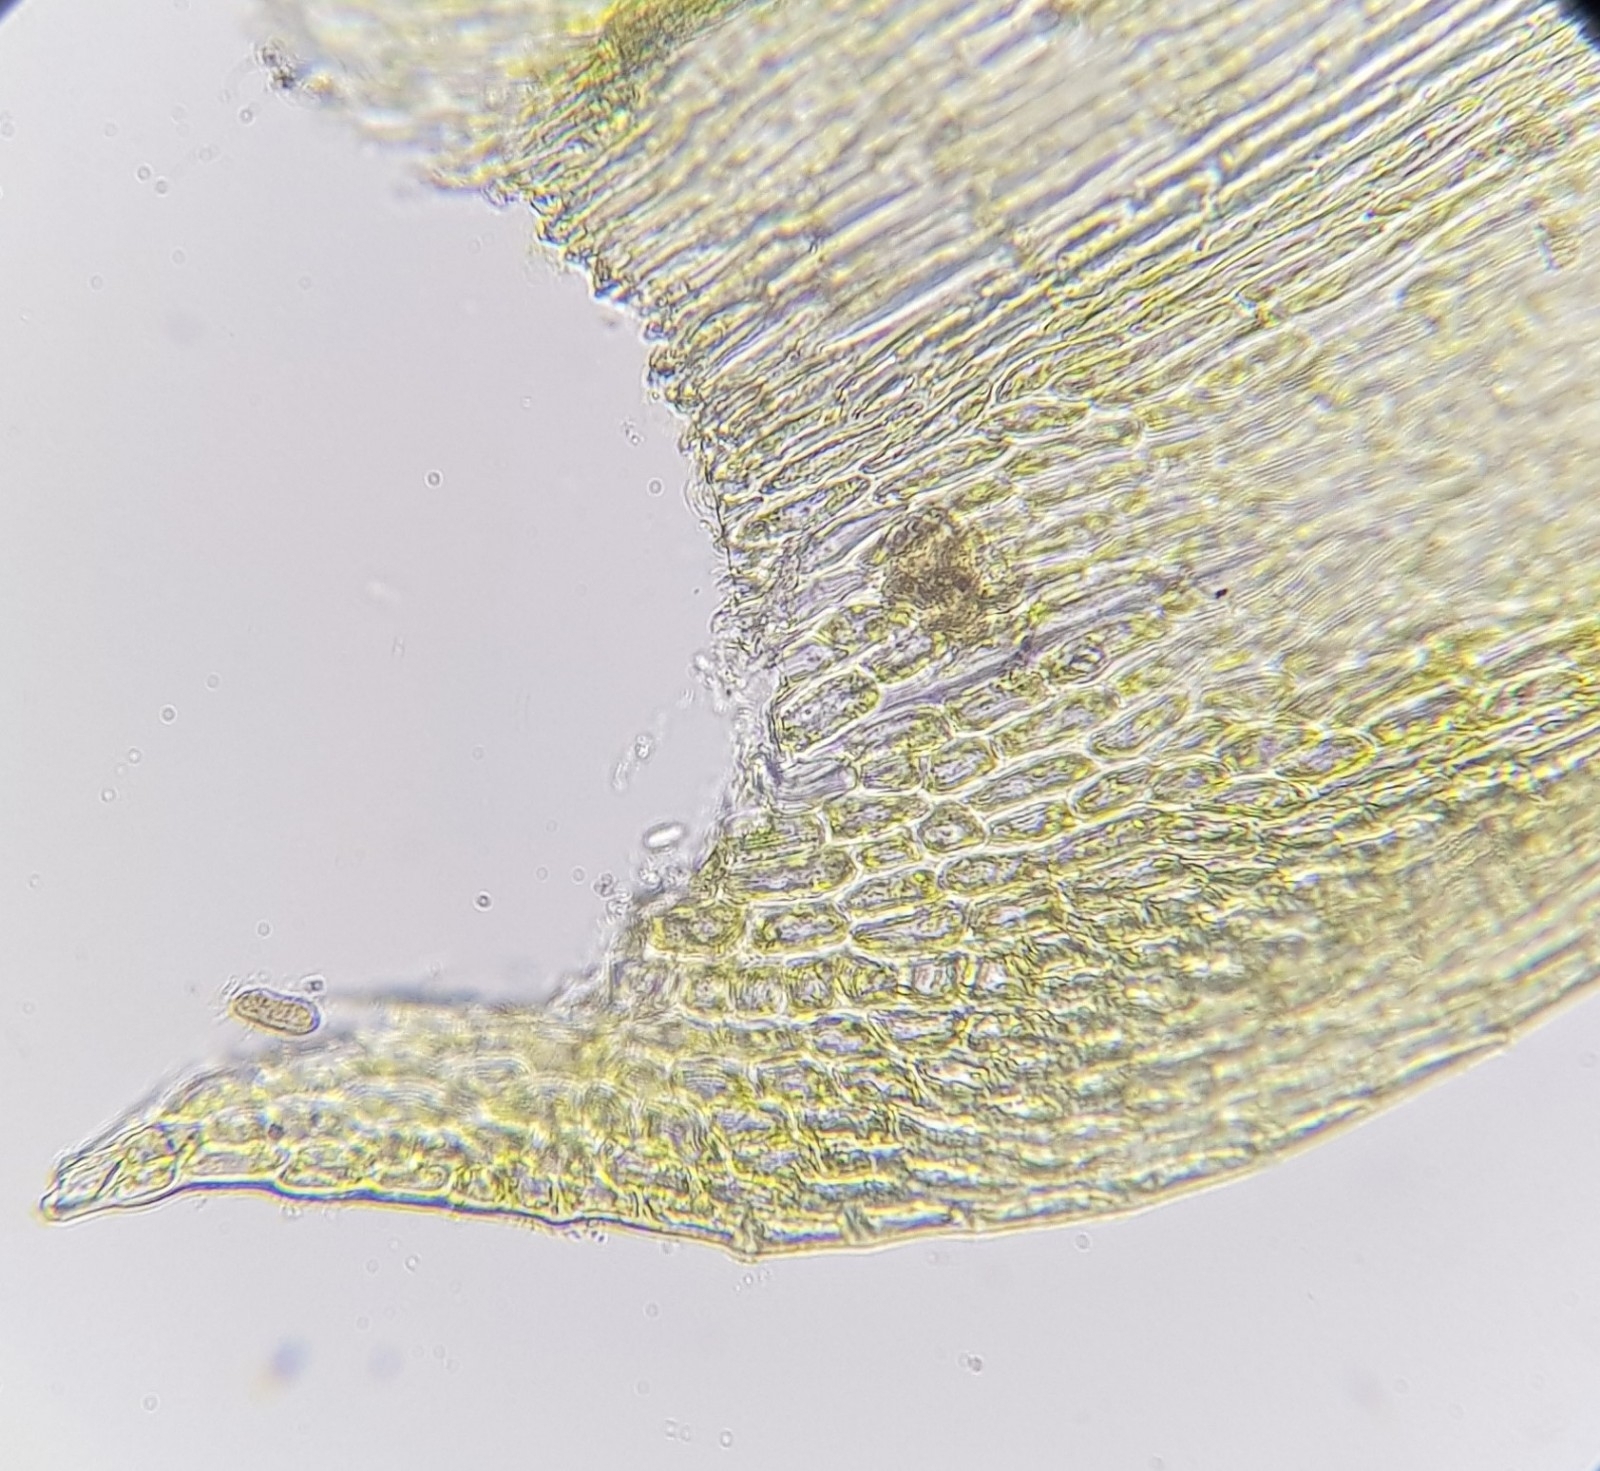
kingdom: Plantae
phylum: Bryophyta
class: Bryopsida
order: Hypnales
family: Brachytheciaceae
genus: Homalothecium
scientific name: Homalothecium lutescens
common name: Yellow feather-moss
